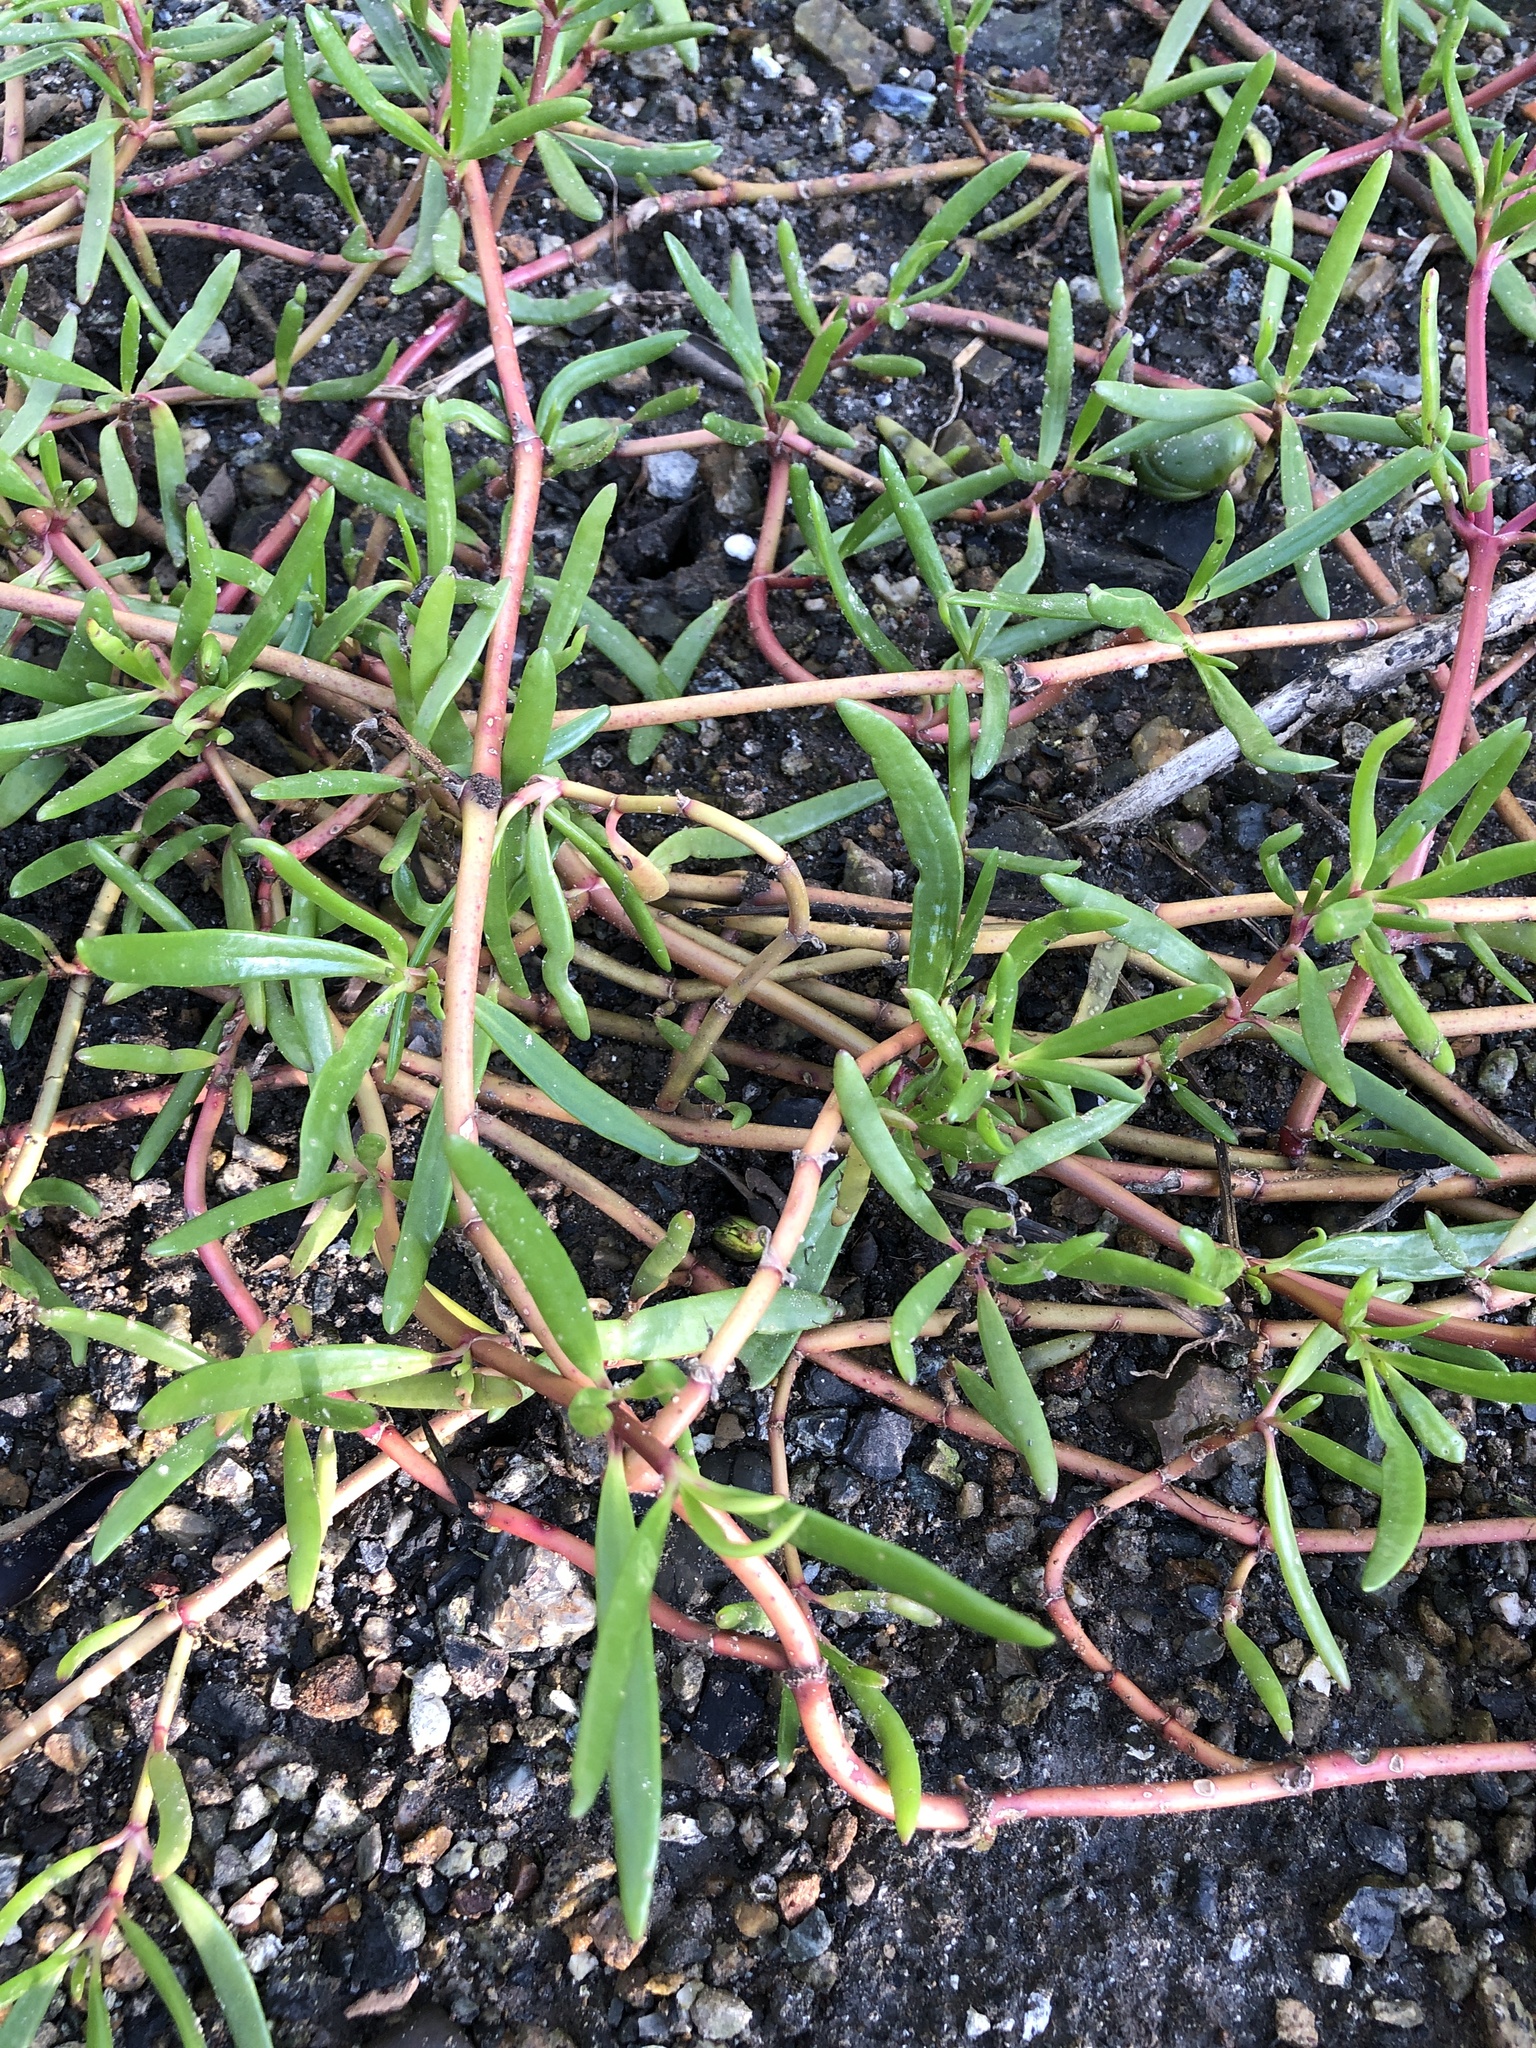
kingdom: Plantae
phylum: Tracheophyta
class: Magnoliopsida
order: Caryophyllales
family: Aizoaceae
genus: Sesuvium
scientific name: Sesuvium portulacastrum
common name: Sea-purslane
